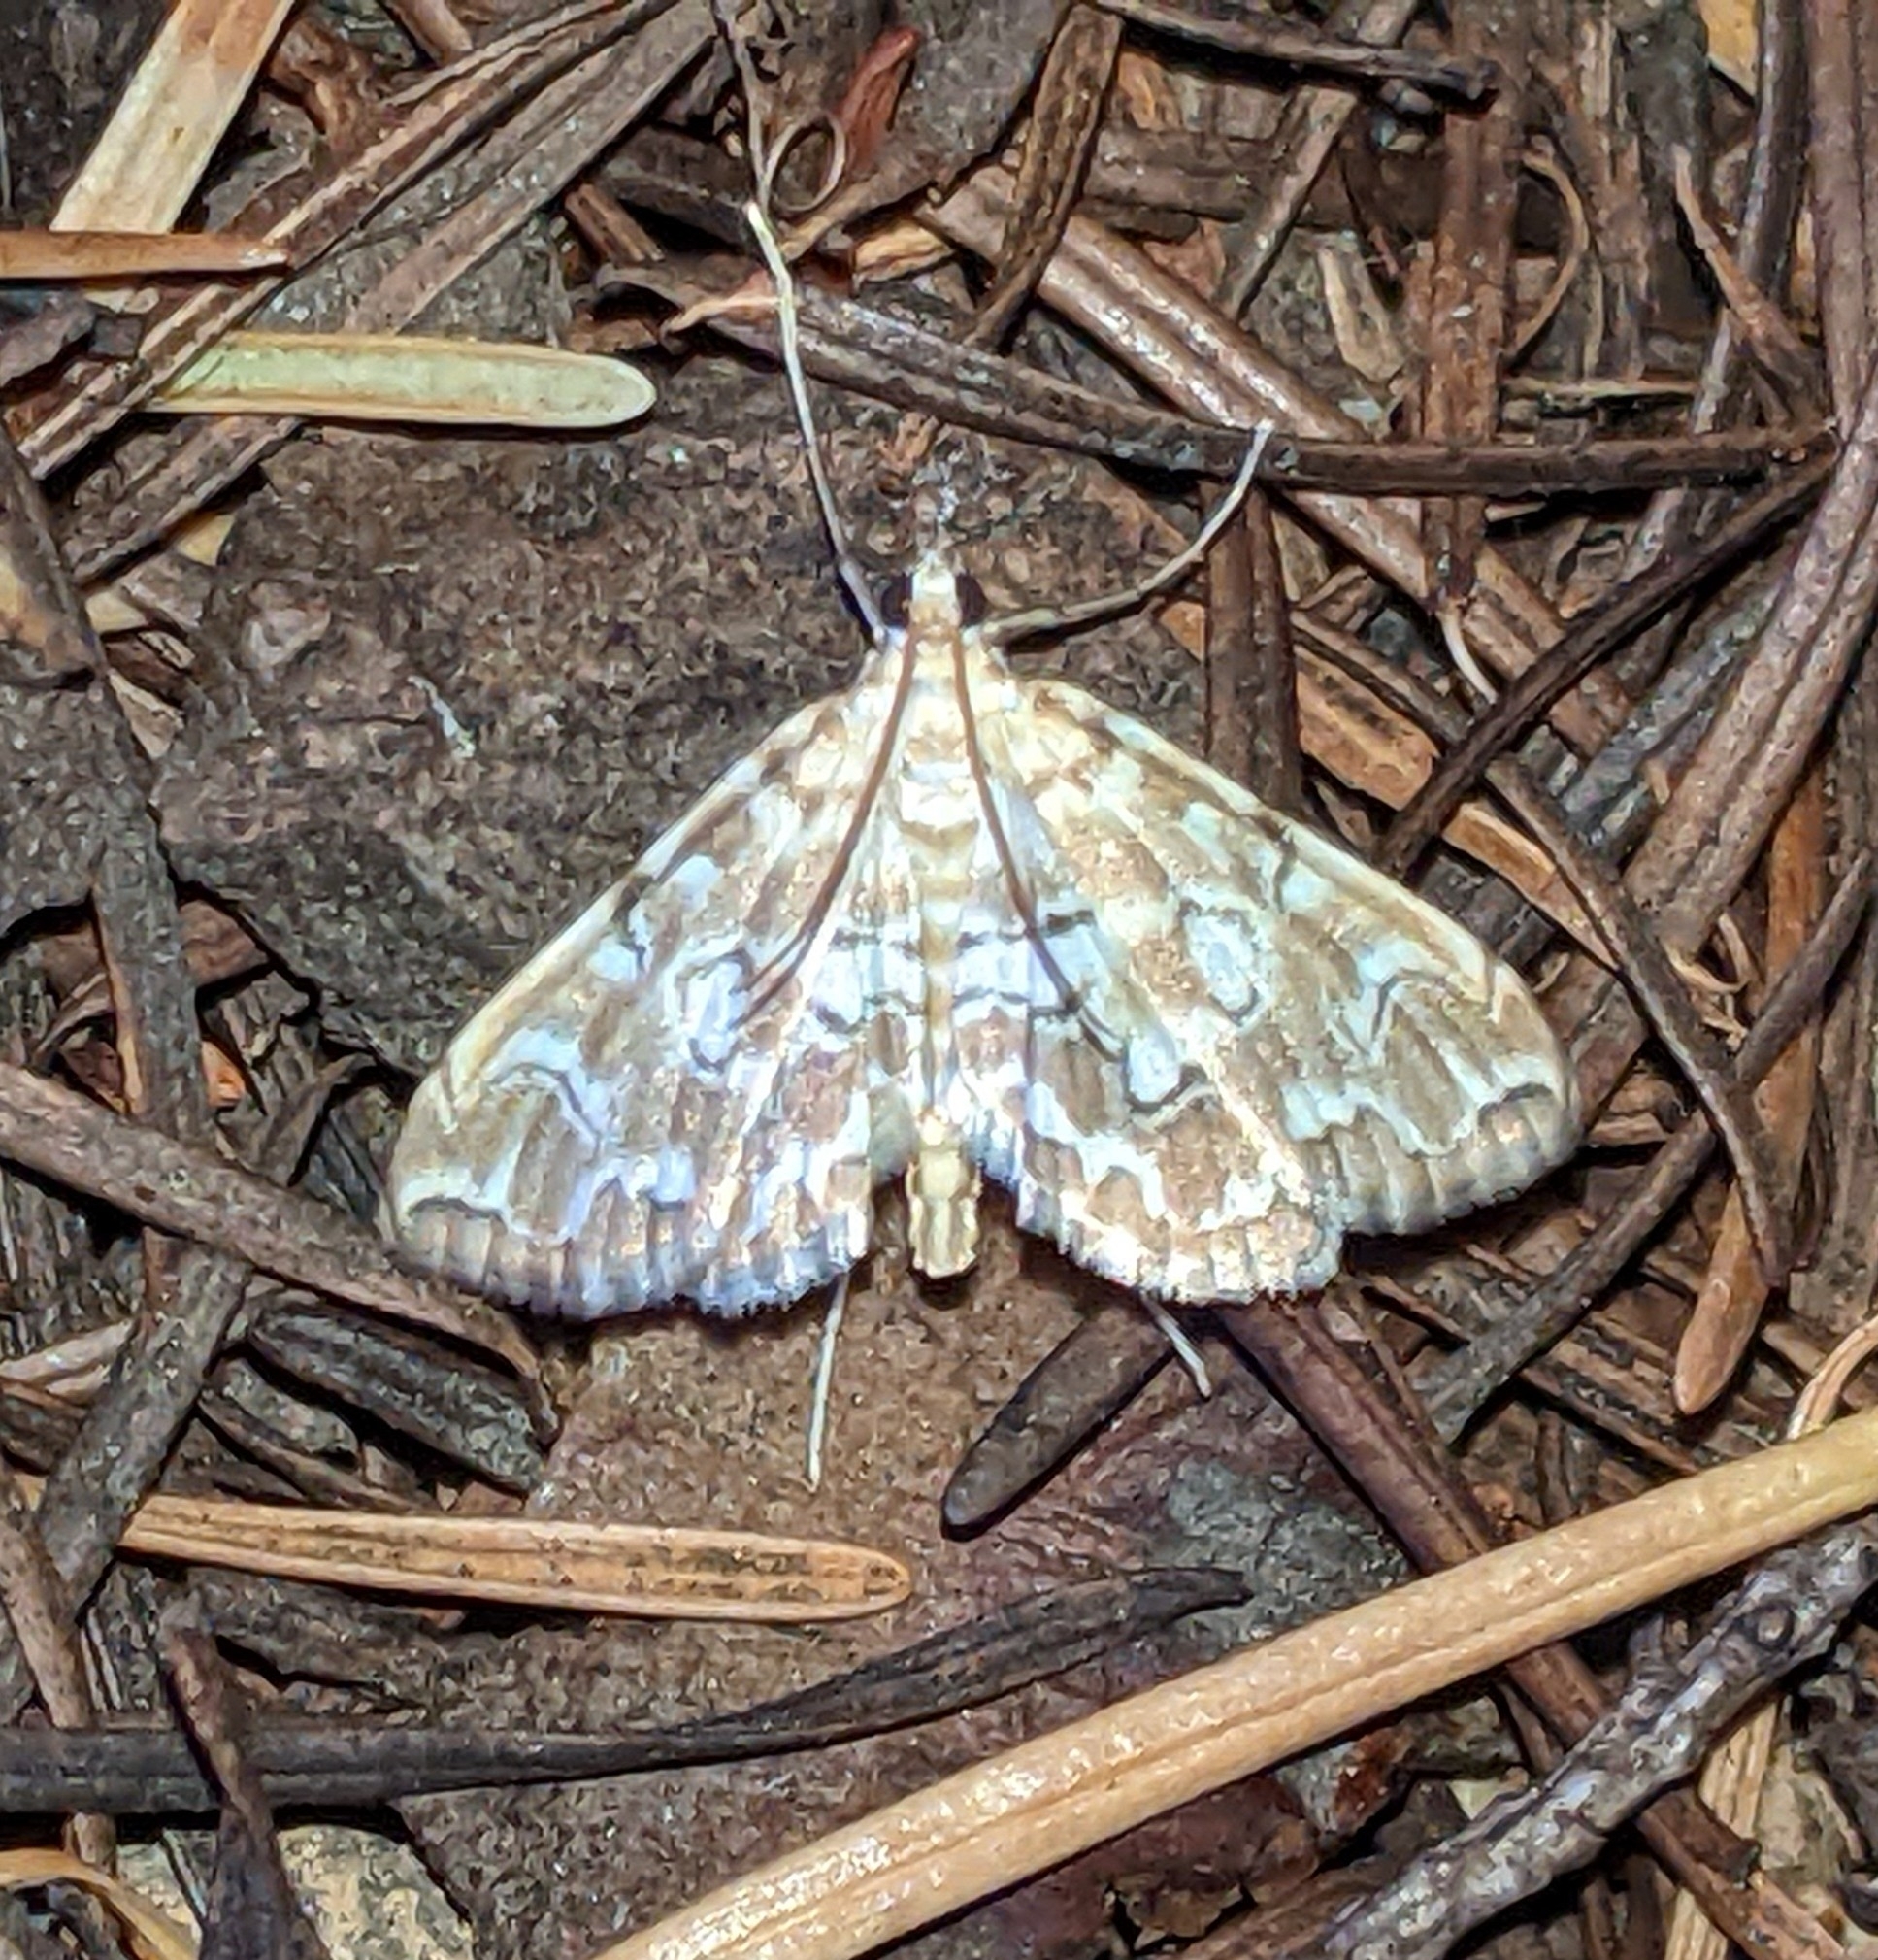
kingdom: Animalia
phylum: Arthropoda
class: Insecta
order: Lepidoptera
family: Crambidae
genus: Elophila
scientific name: Elophila icciusalis
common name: Pondside pyralid moth
